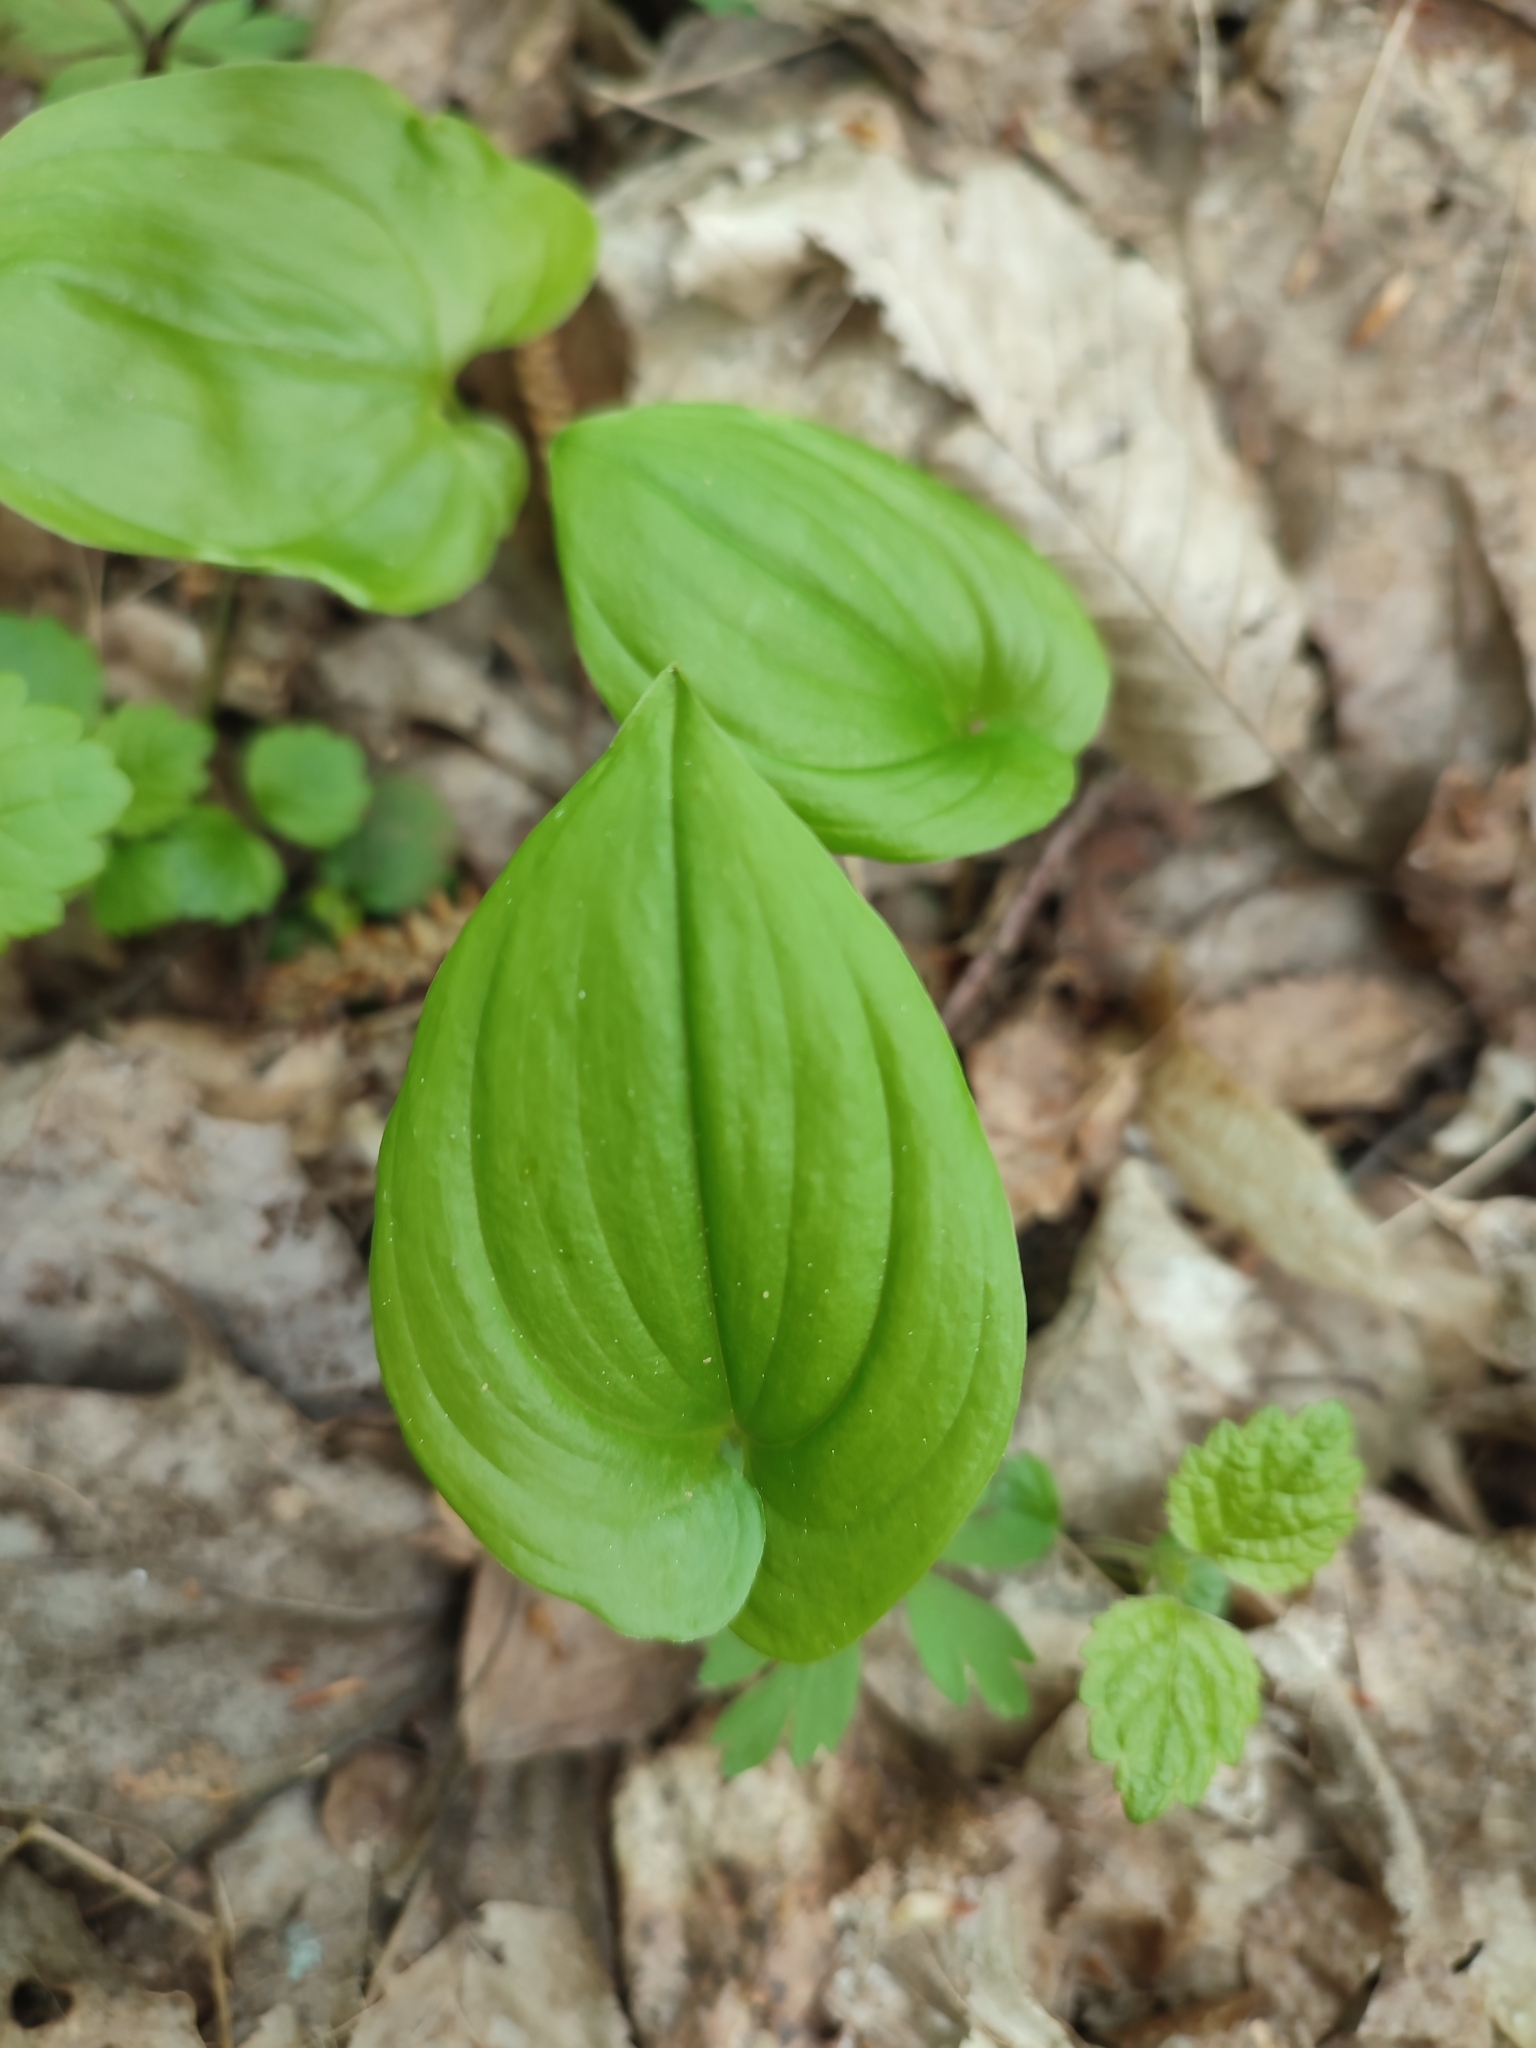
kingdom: Plantae
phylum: Tracheophyta
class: Liliopsida
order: Asparagales
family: Asparagaceae
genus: Maianthemum
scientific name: Maianthemum bifolium
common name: May lily
